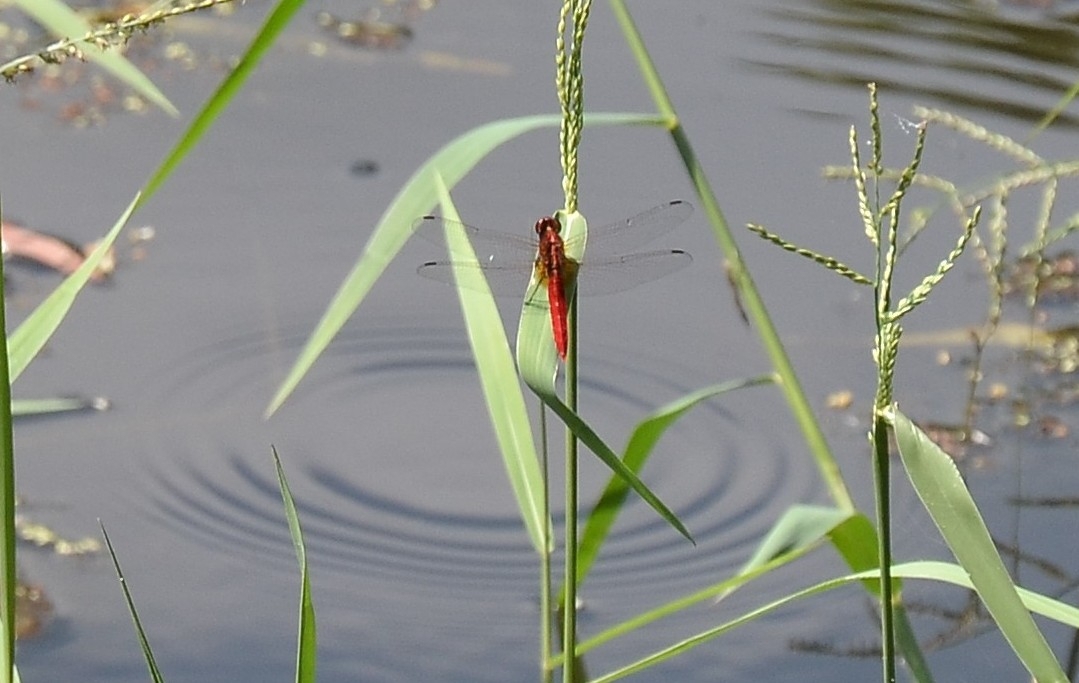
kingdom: Animalia
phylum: Arthropoda
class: Insecta
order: Odonata
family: Libellulidae
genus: Rhodothemis
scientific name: Rhodothemis rufa
